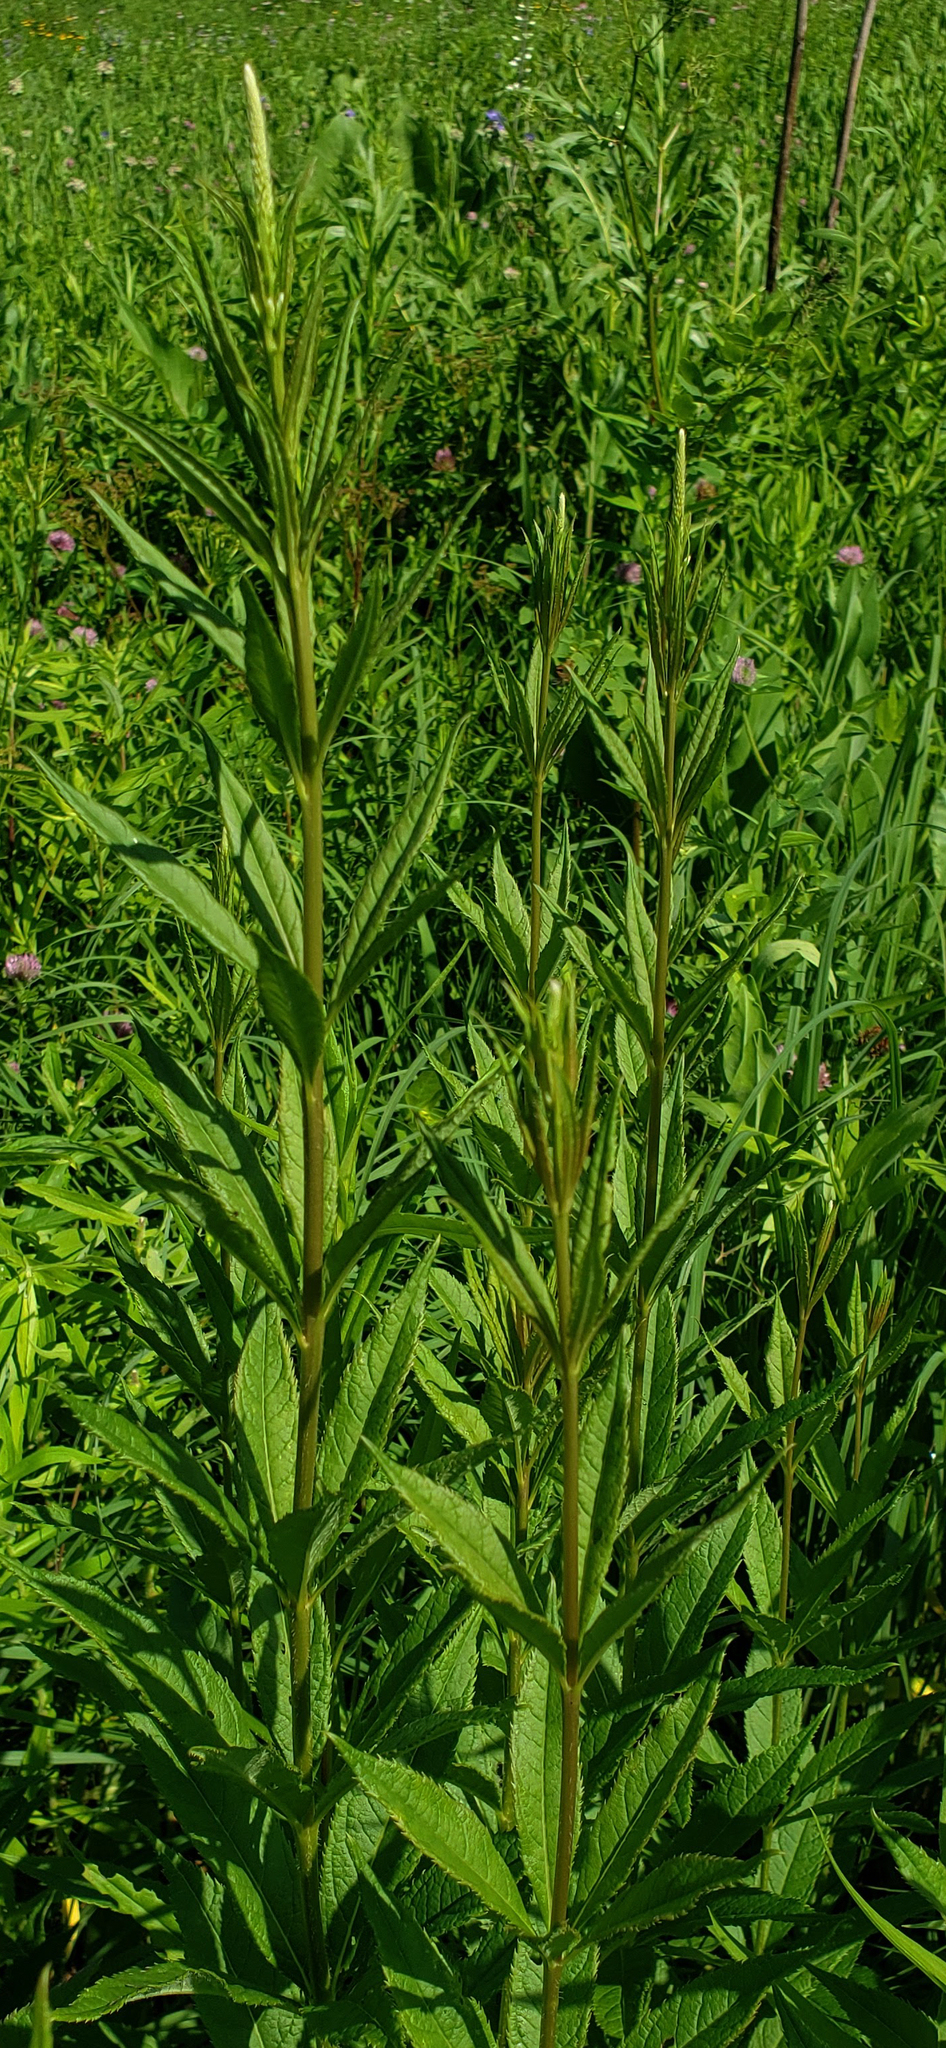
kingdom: Plantae
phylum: Tracheophyta
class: Magnoliopsida
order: Lamiales
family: Plantaginaceae
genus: Veronicastrum
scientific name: Veronicastrum virginicum
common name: Blackroot
